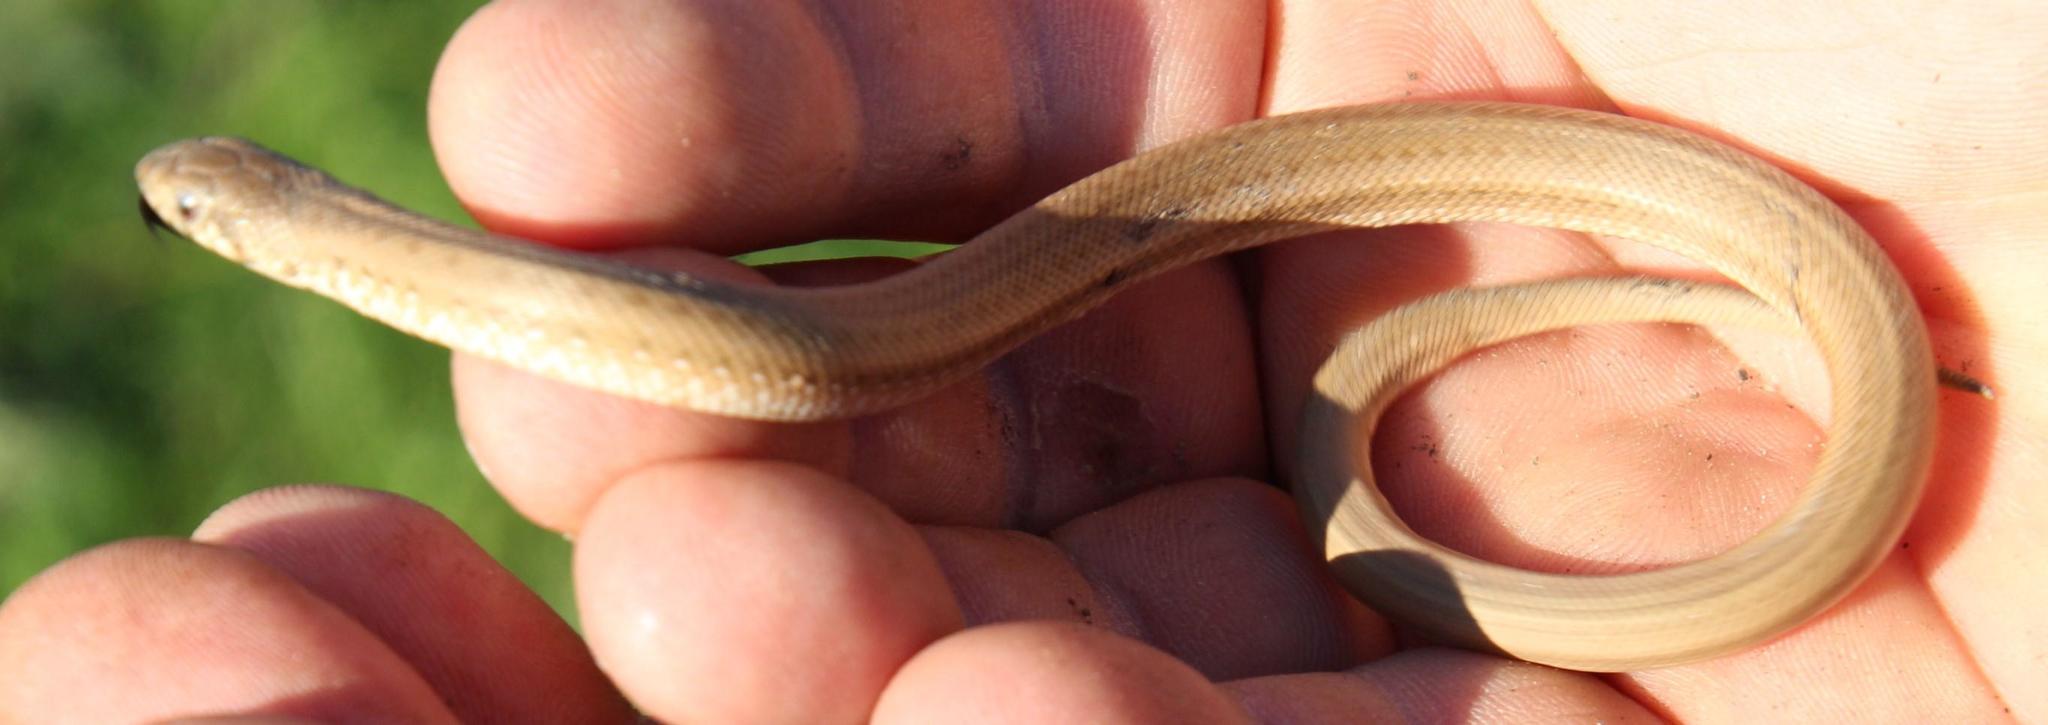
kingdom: Animalia
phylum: Chordata
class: Squamata
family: Pseudaspididae
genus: Pseudaspis
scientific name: Pseudaspis cana
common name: Mole snake
